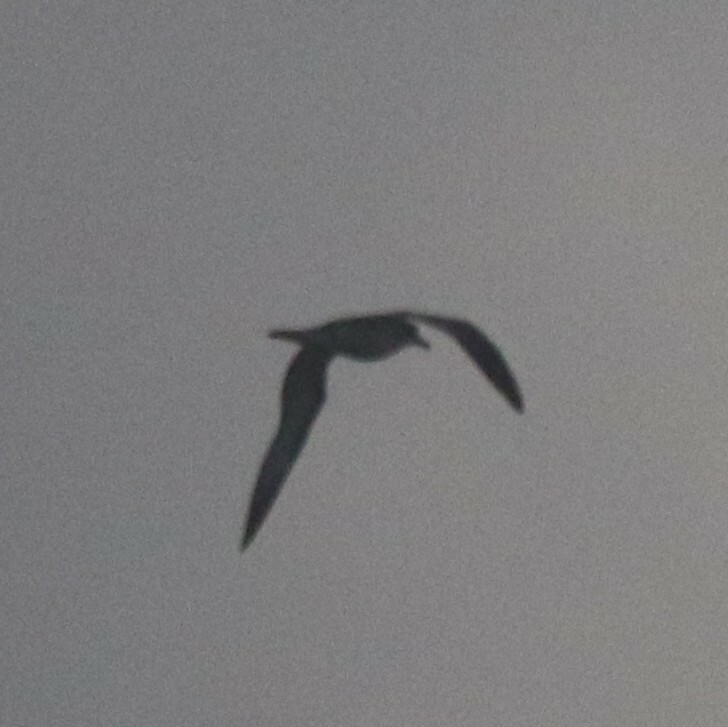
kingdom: Animalia
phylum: Chordata
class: Aves
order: Procellariiformes
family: Procellariidae
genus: Pterodroma
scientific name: Pterodroma baraui
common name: Barau's petrel
